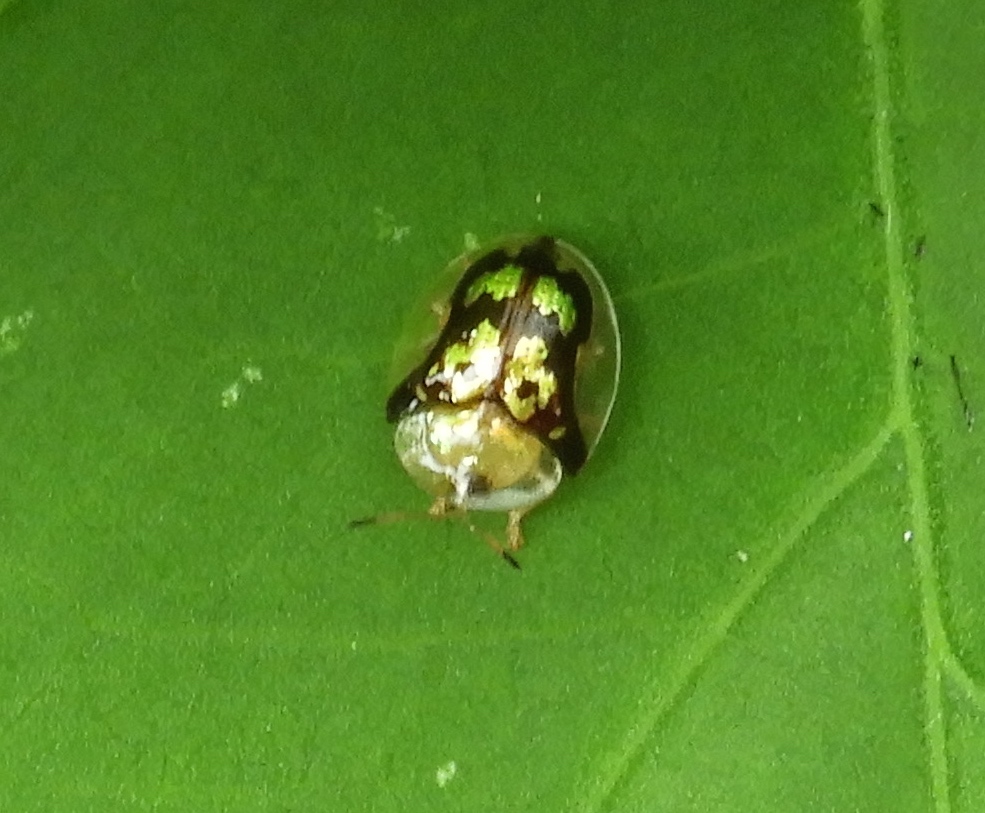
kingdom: Animalia
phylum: Arthropoda
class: Insecta
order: Coleoptera
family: Chrysomelidae
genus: Deloyala
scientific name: Deloyala lecontei
